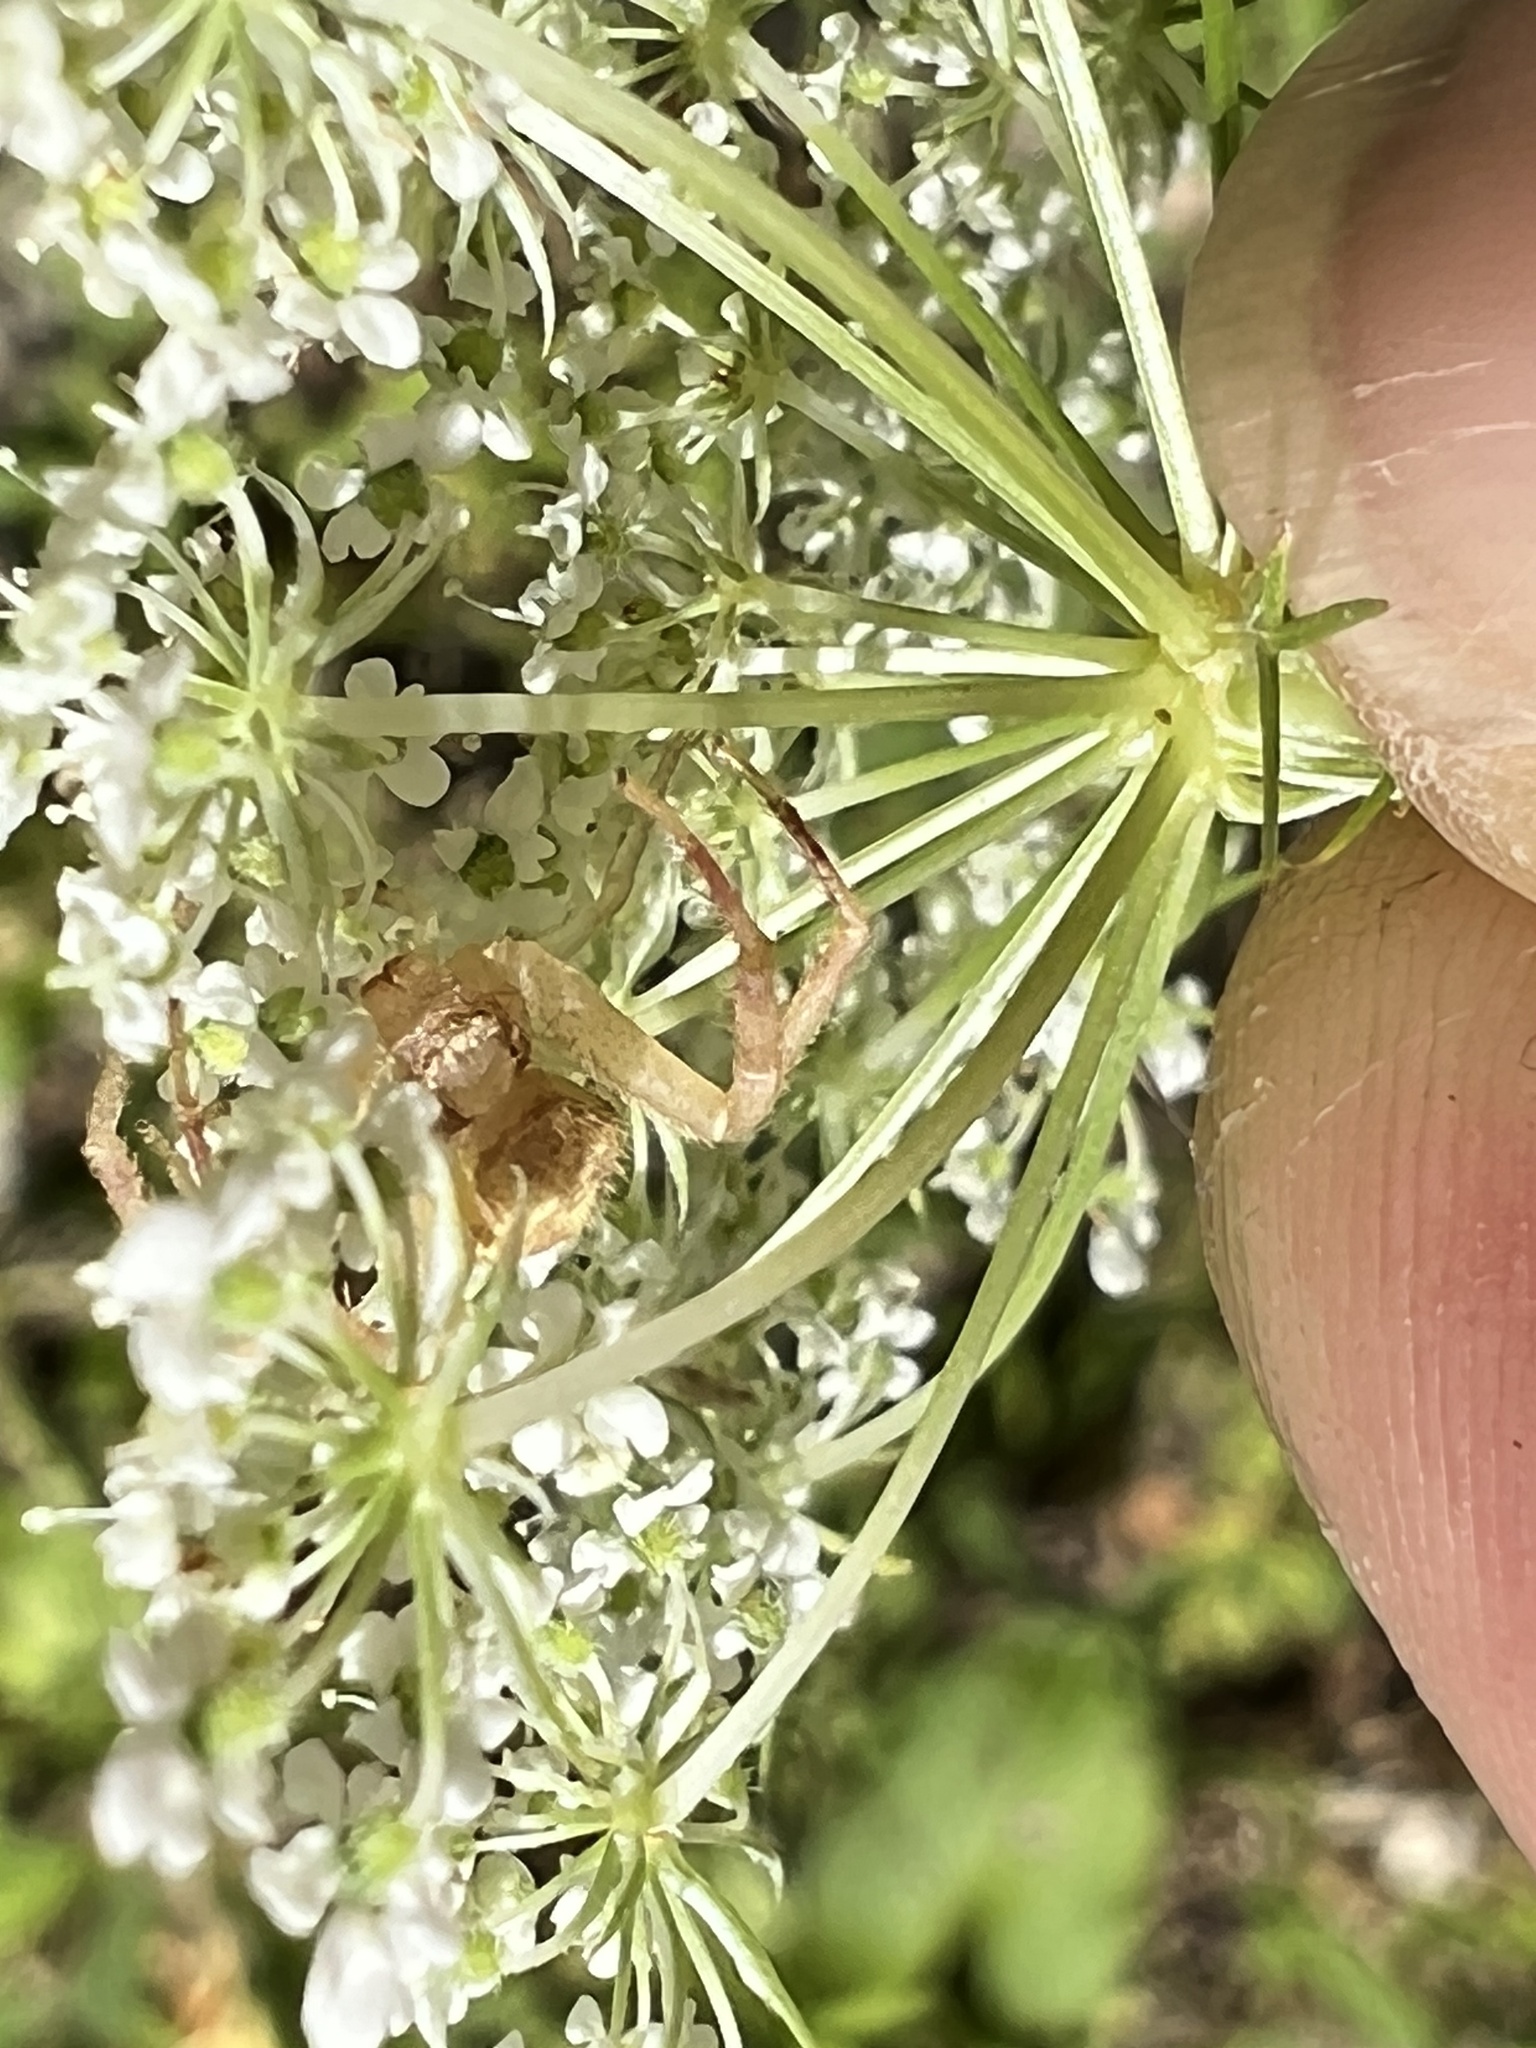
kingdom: Animalia
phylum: Arthropoda
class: Arachnida
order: Araneae
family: Thomisidae
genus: Mecaphesa
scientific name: Mecaphesa asperata
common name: Crab spiders
